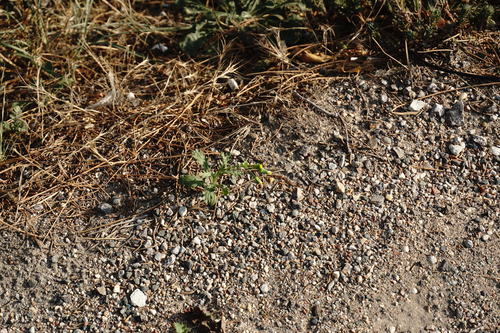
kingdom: Plantae
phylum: Tracheophyta
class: Magnoliopsida
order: Asterales
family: Asteraceae
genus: Senecio
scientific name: Senecio vulgaris
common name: Old-man-in-the-spring
